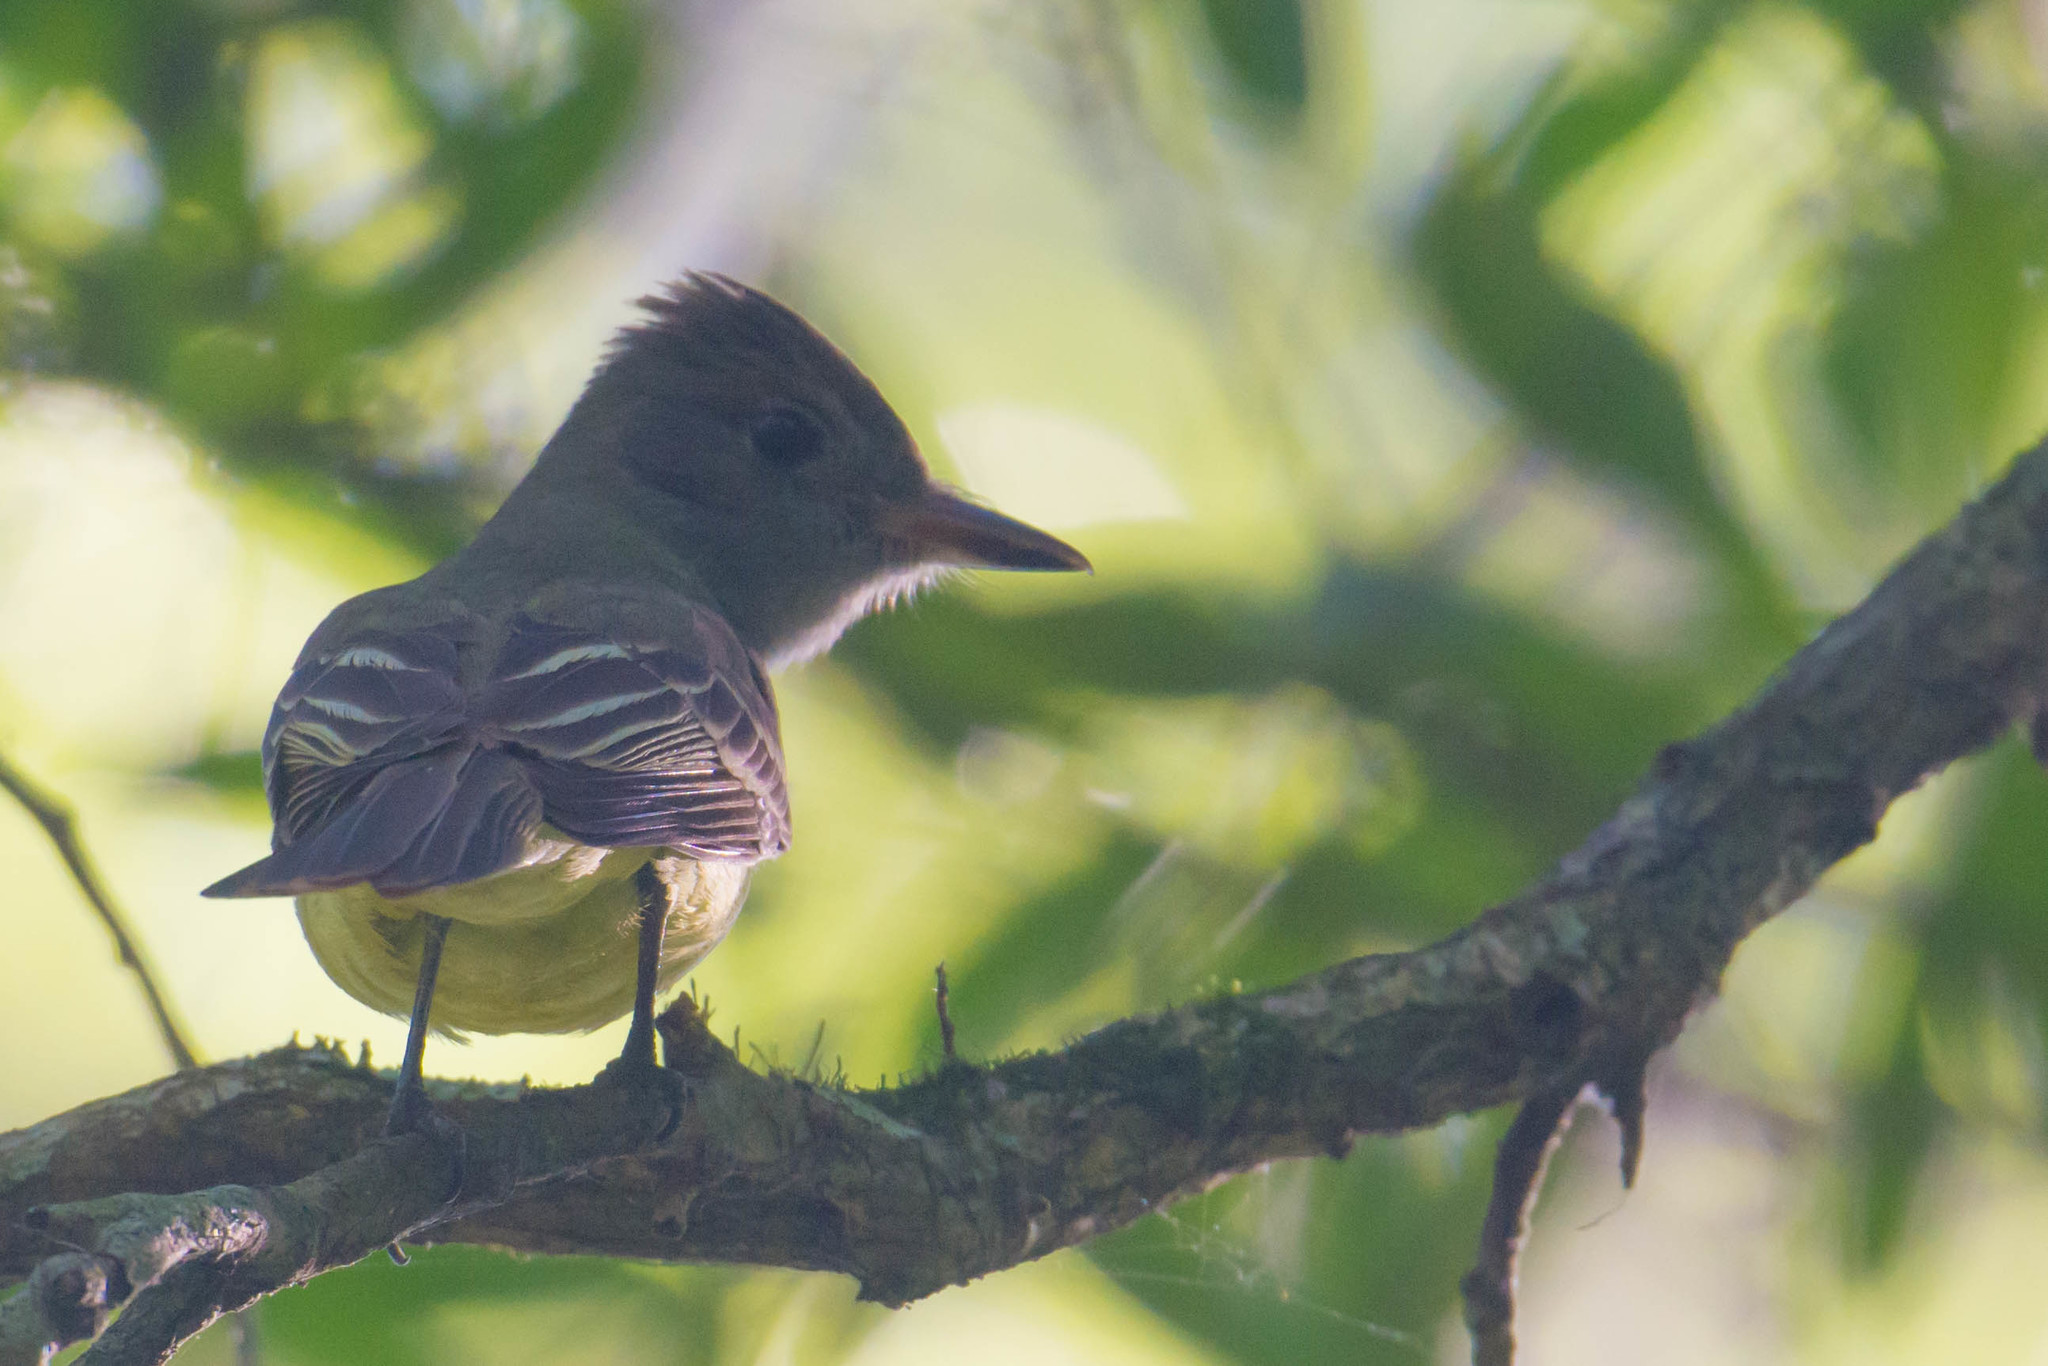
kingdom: Animalia
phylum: Chordata
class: Aves
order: Passeriformes
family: Tyrannidae
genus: Myiarchus
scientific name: Myiarchus crinitus
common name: Great crested flycatcher
